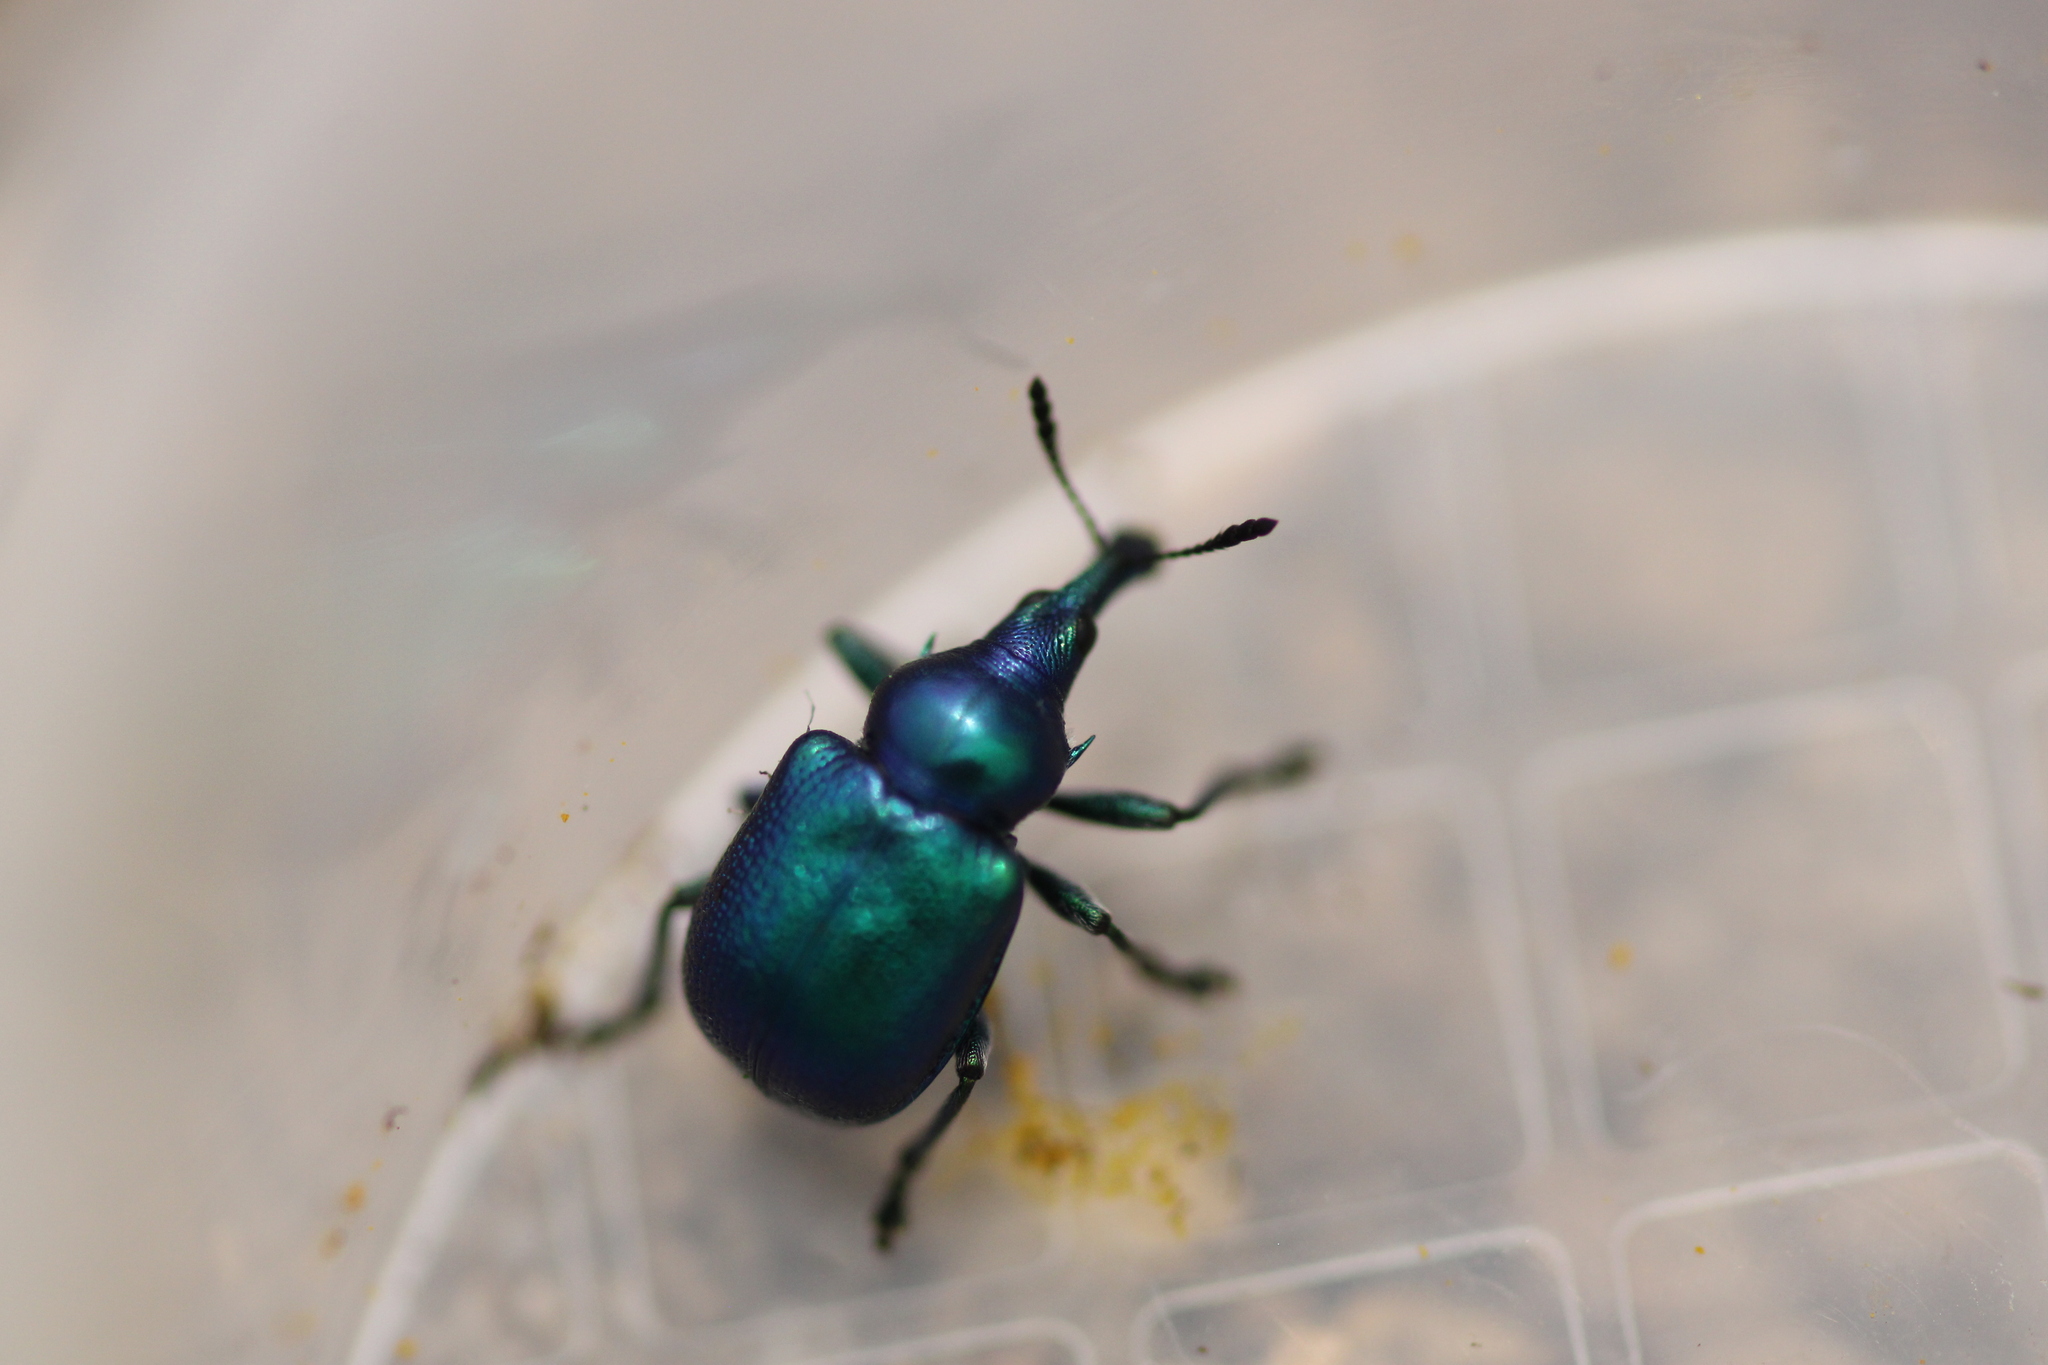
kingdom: Animalia
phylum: Arthropoda
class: Insecta
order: Coleoptera
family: Attelabidae
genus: Byctiscus
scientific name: Byctiscus betulae
